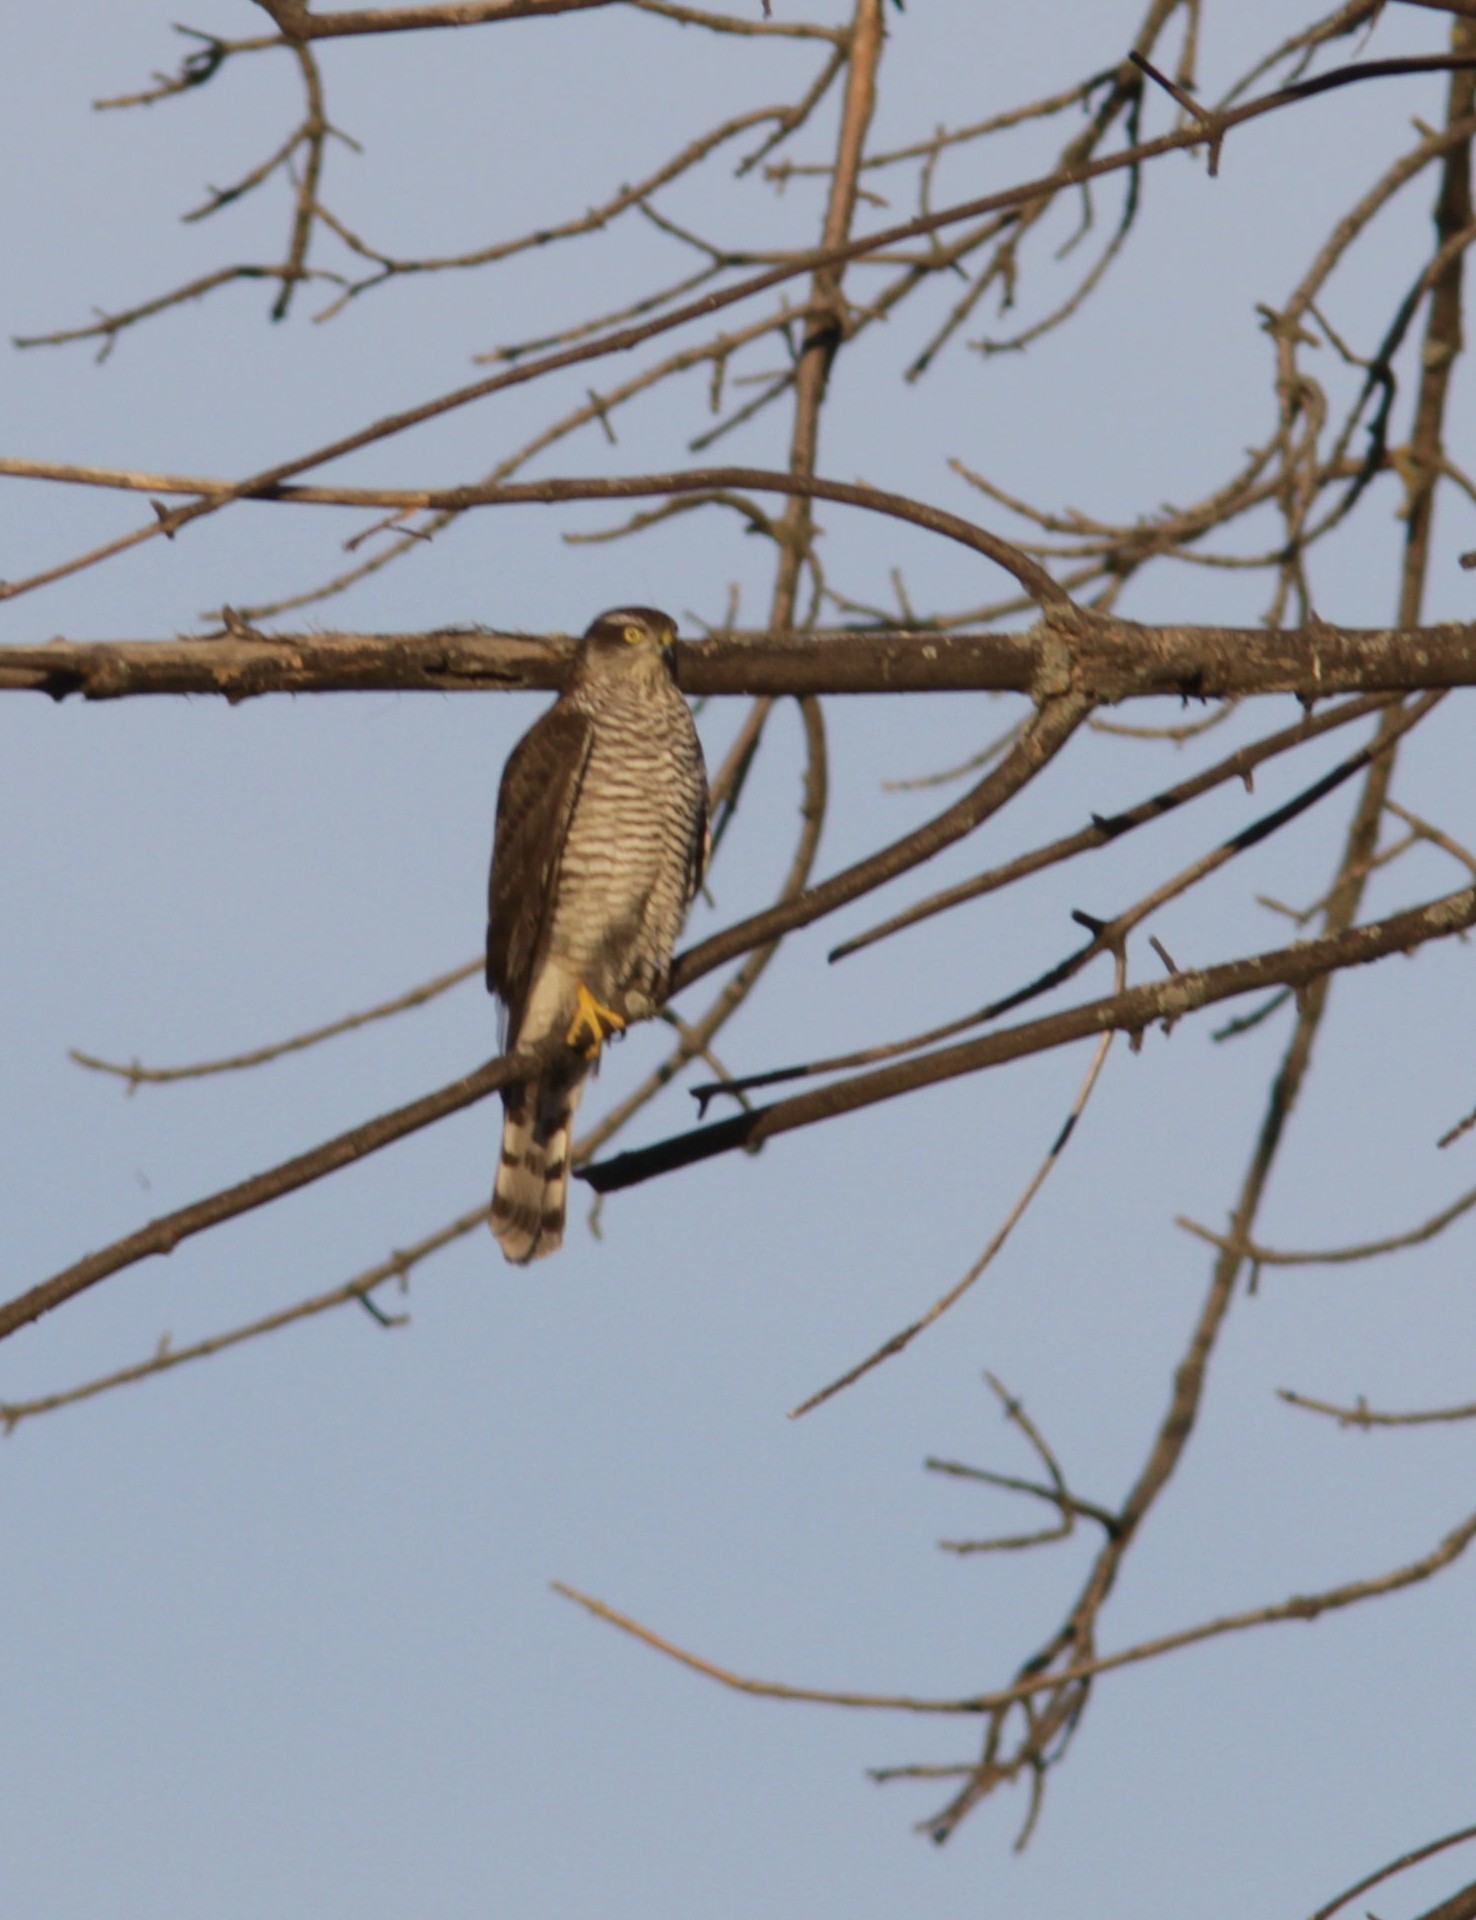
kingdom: Animalia
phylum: Chordata
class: Aves
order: Accipitriformes
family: Accipitridae
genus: Accipiter
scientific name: Accipiter nisus
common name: Eurasian sparrowhawk
